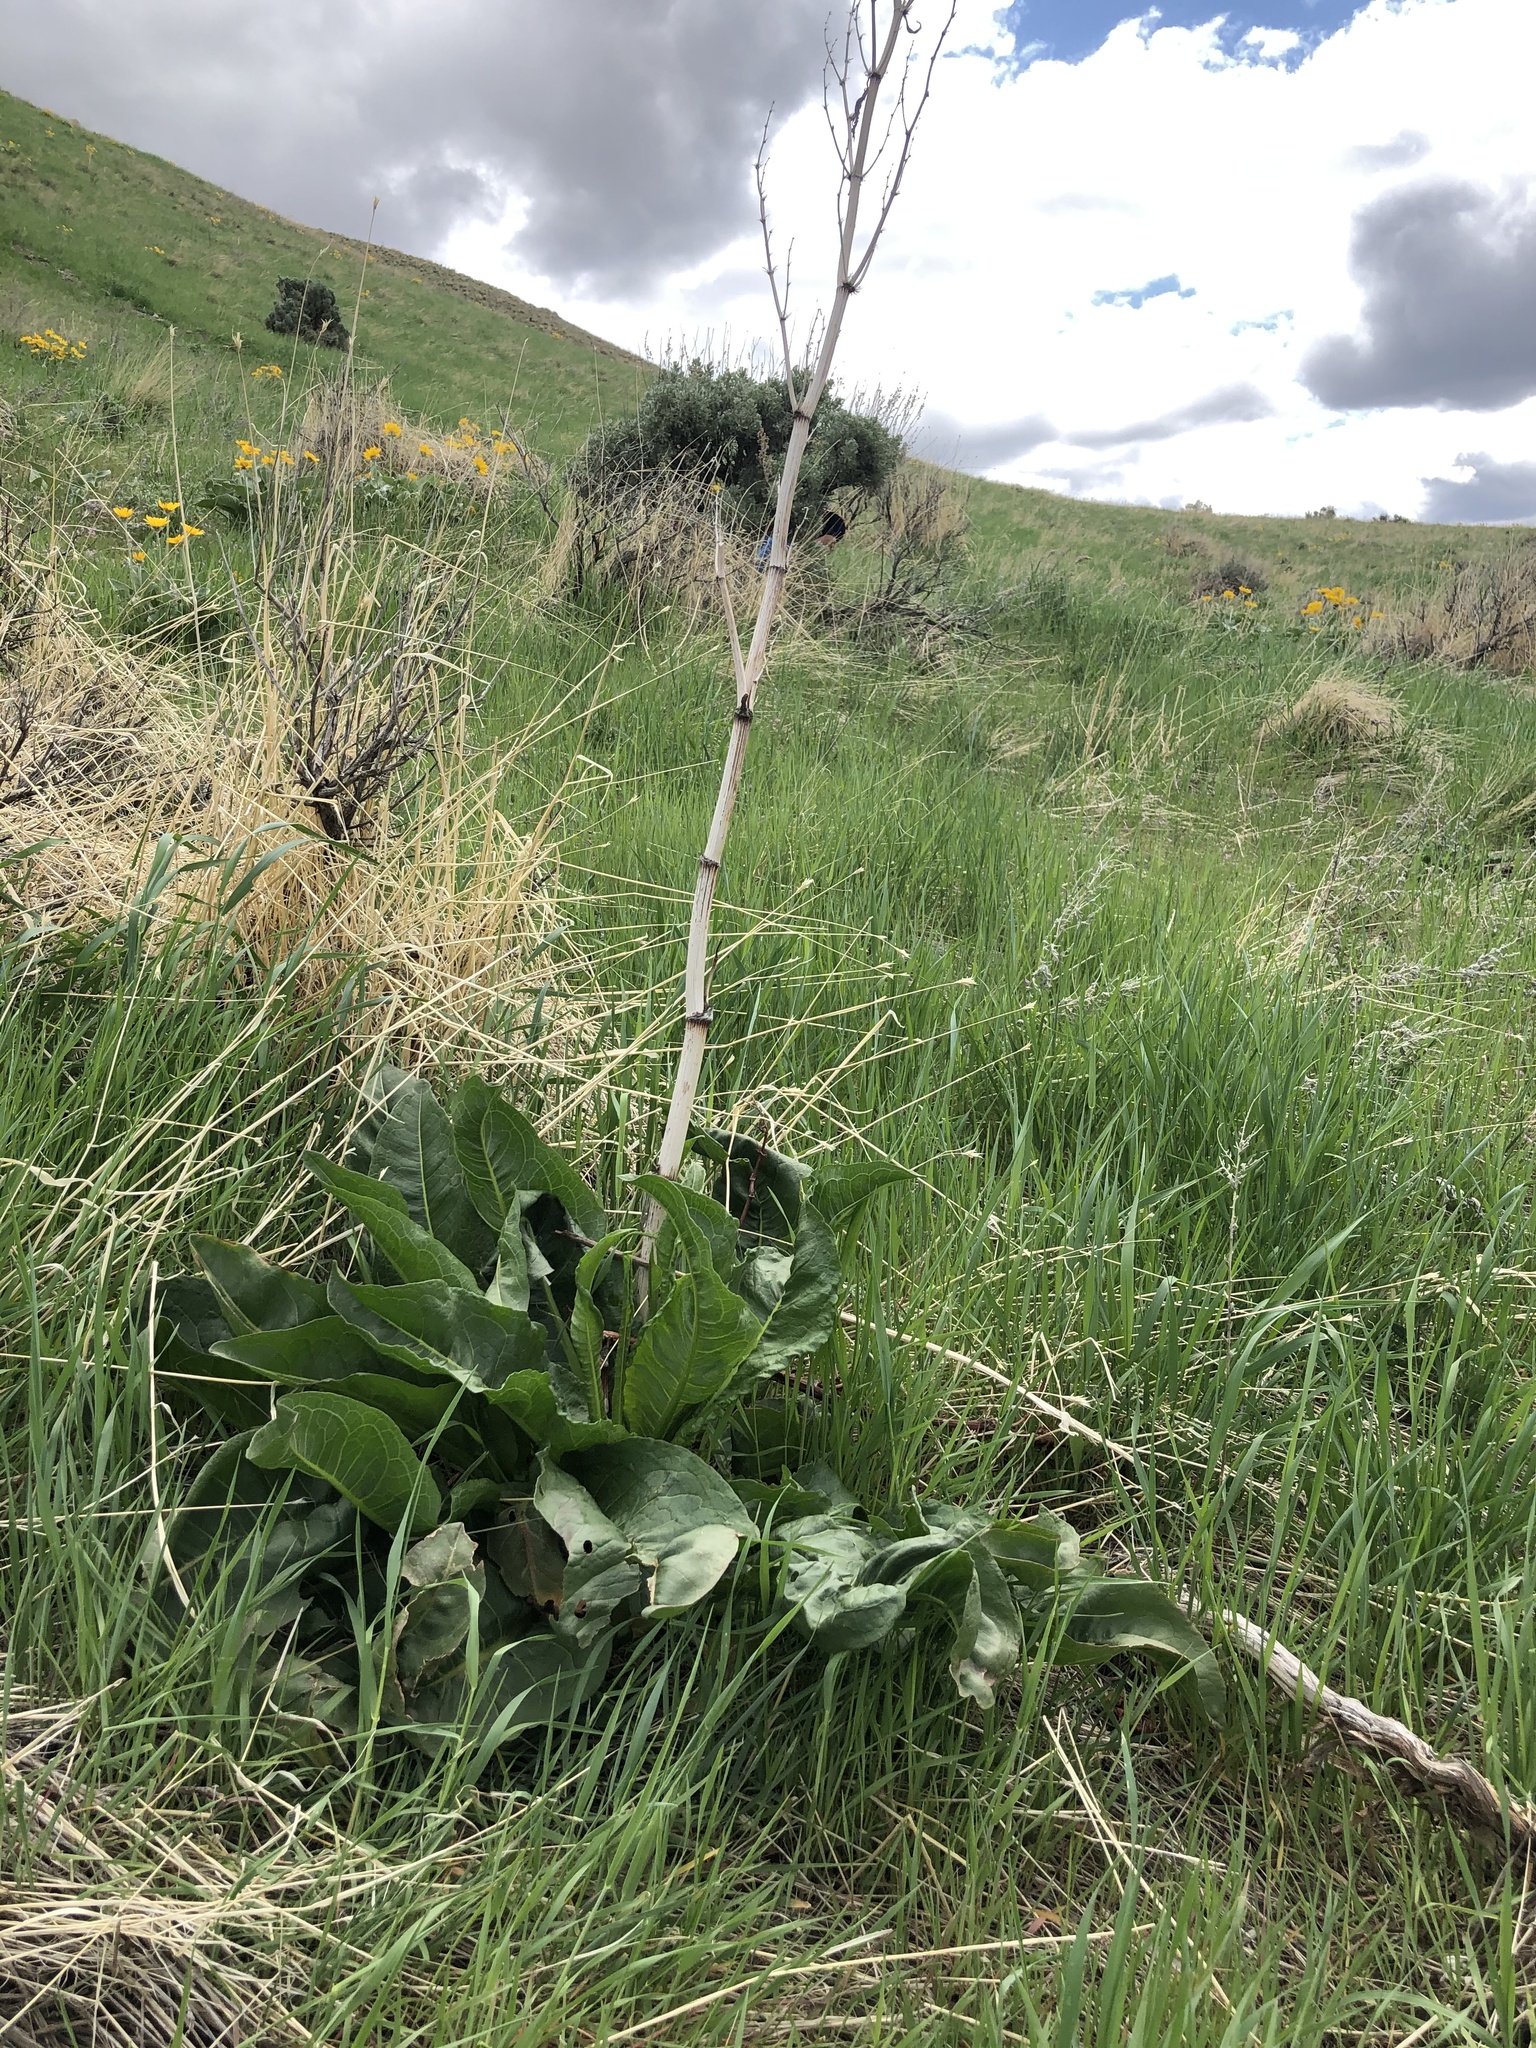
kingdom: Plantae
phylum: Tracheophyta
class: Magnoliopsida
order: Caryophyllales
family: Polygonaceae
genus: Rumex
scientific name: Rumex crispus
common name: Curled dock
